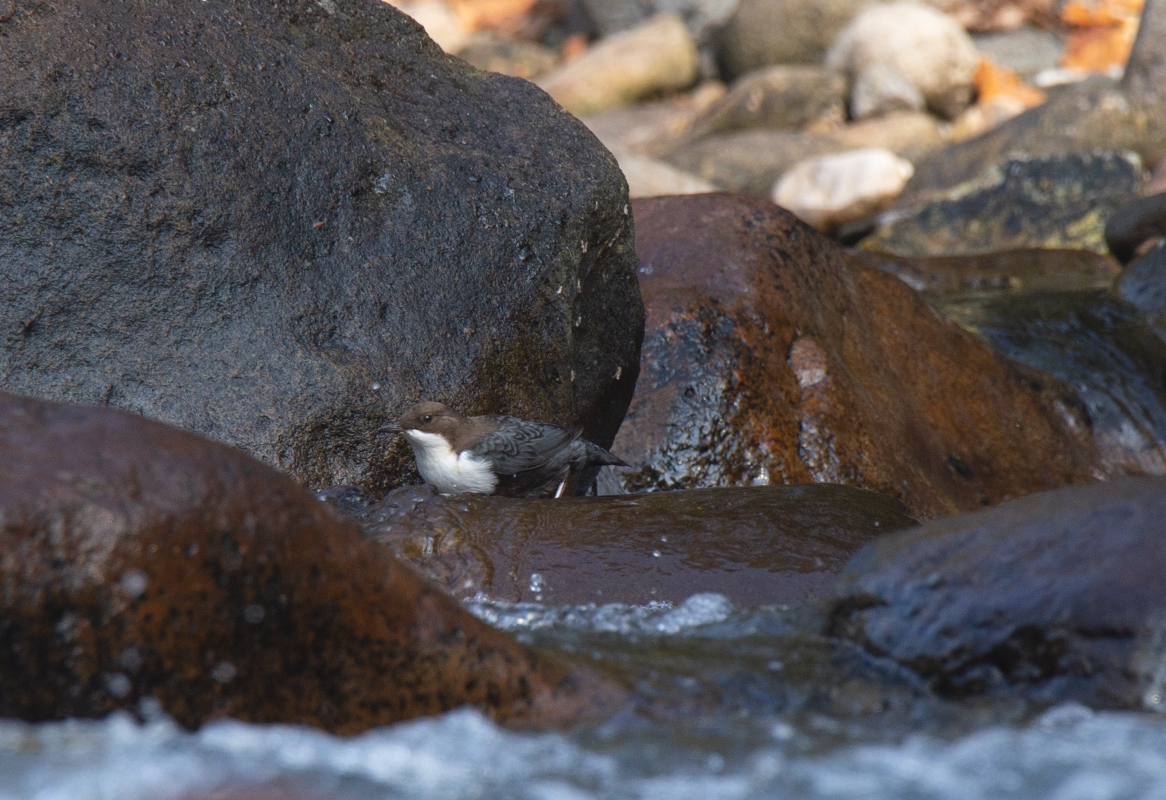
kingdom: Animalia
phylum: Chordata
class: Aves
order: Passeriformes
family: Cinclidae
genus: Cinclus
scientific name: Cinclus cinclus
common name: White-throated dipper
